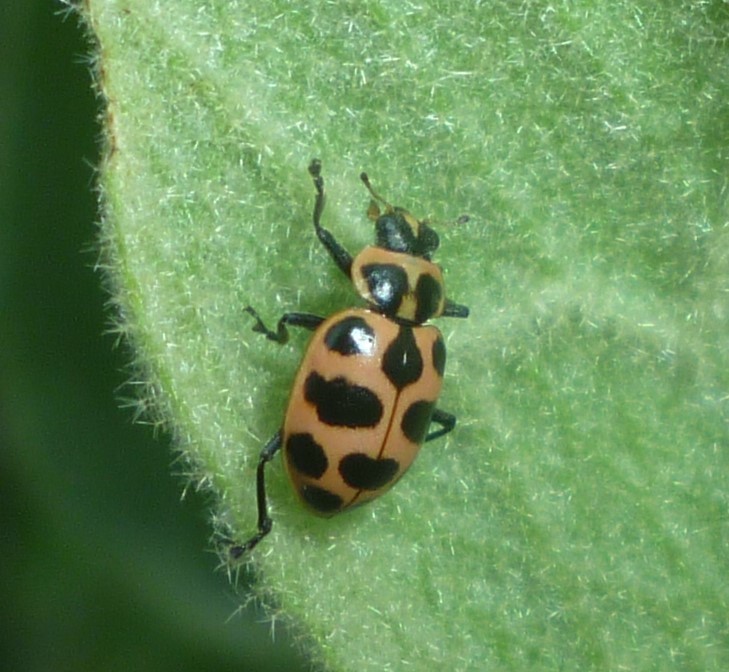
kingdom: Animalia
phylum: Arthropoda
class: Insecta
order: Coleoptera
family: Coccinellidae
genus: Coleomegilla
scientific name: Coleomegilla maculata
